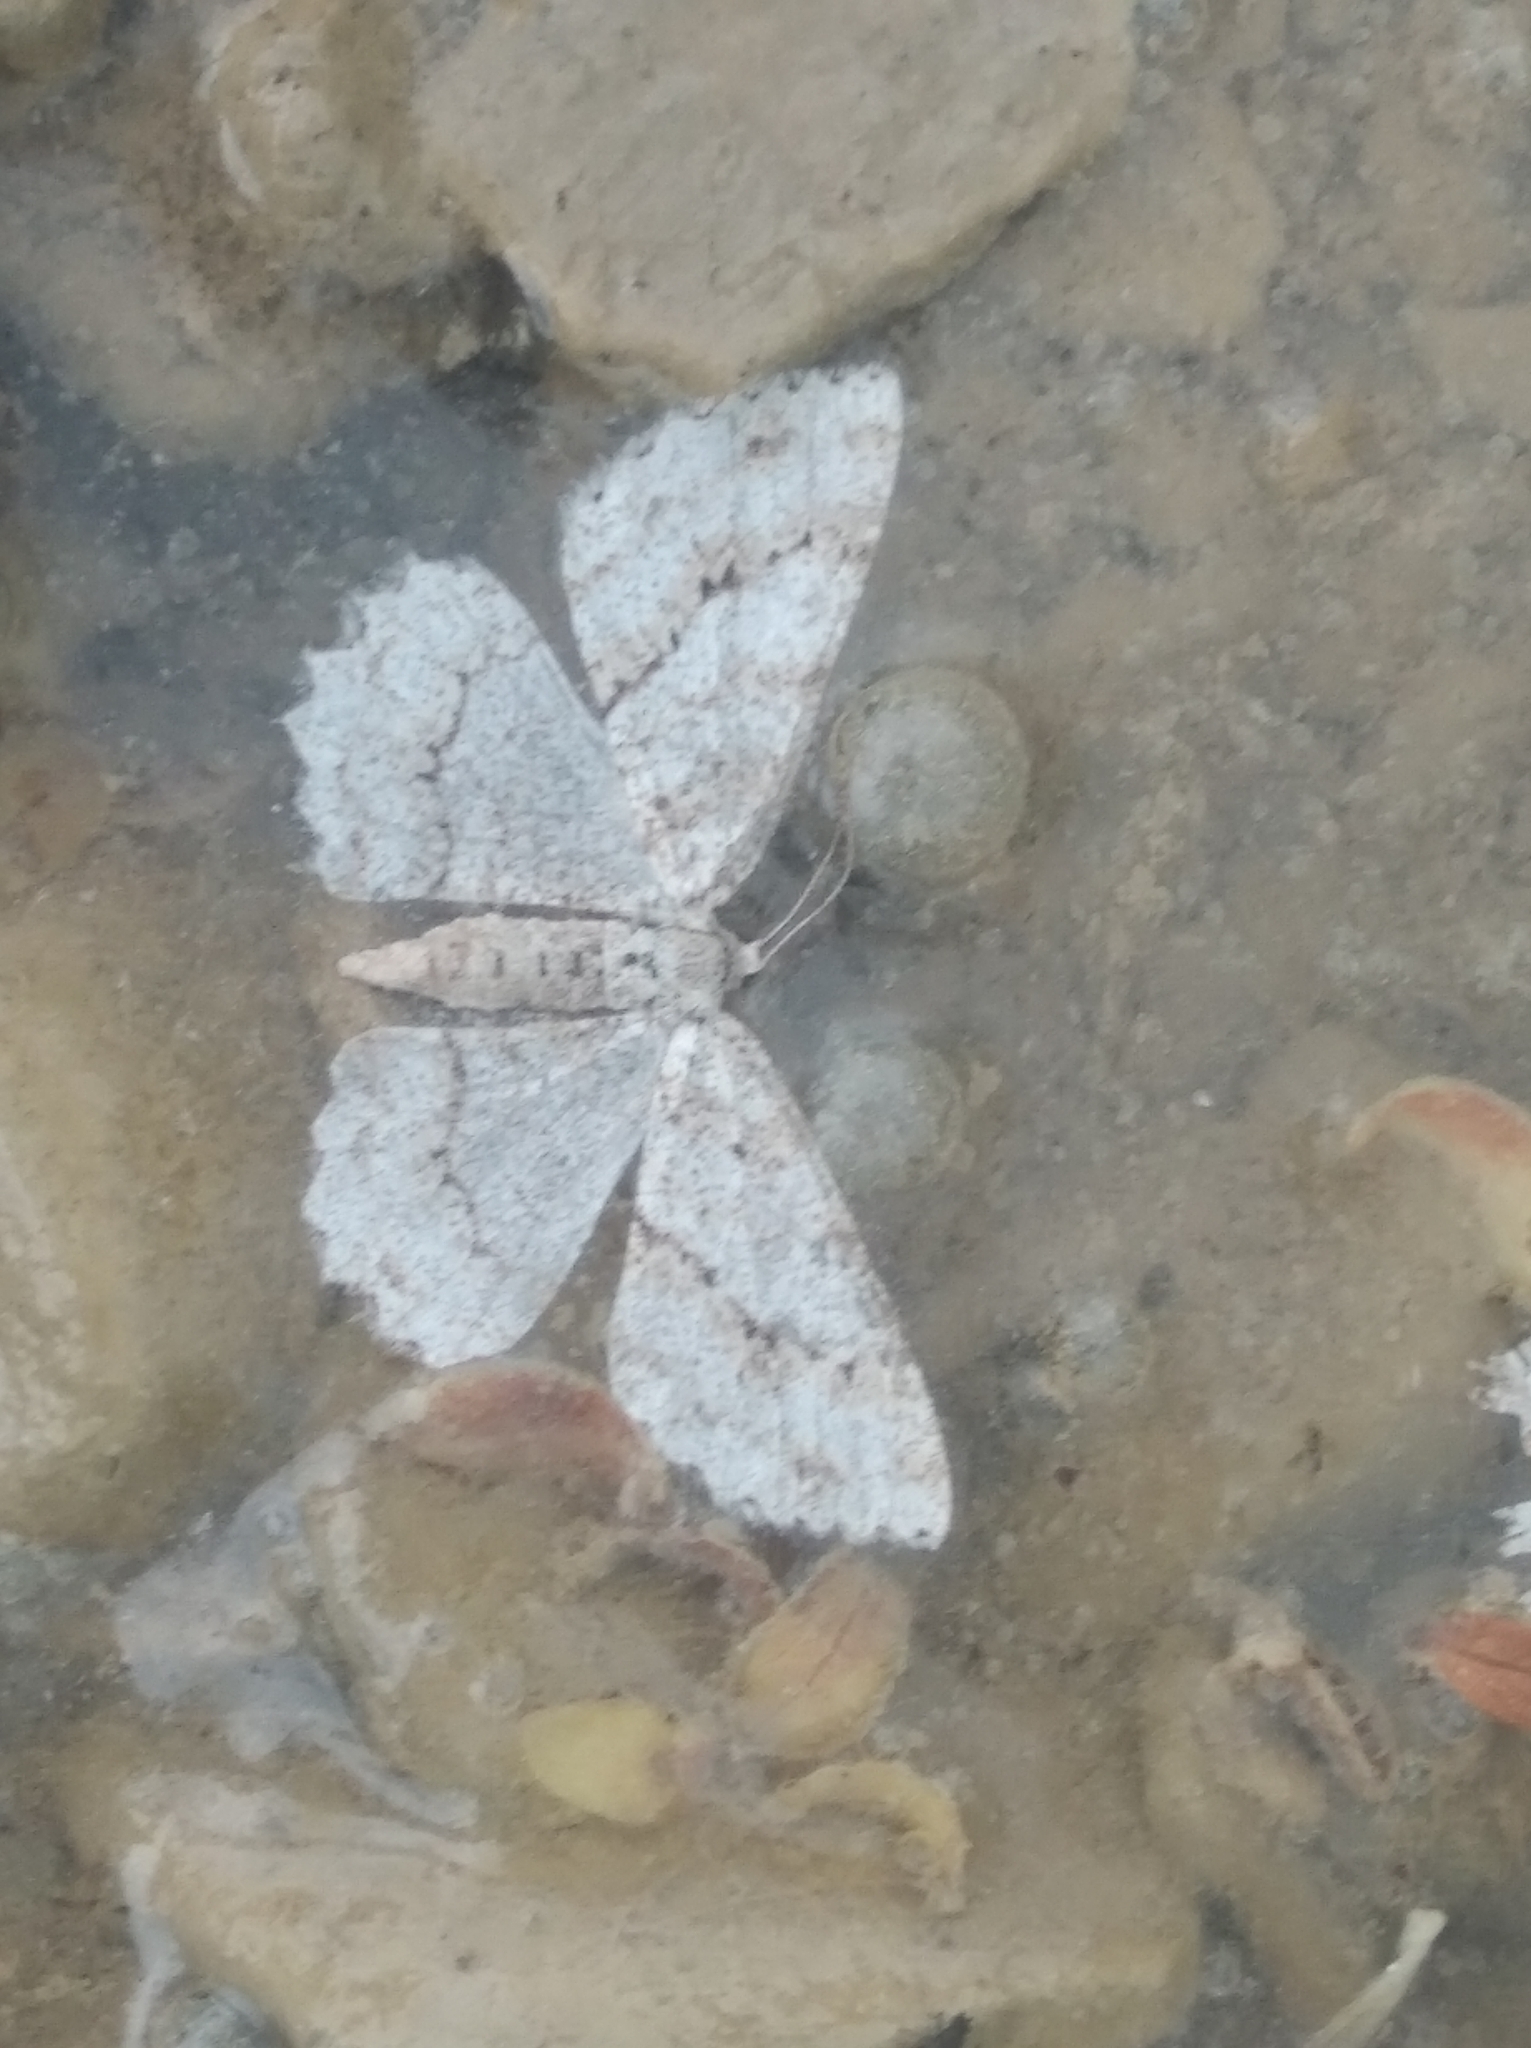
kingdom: Animalia
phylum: Arthropoda
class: Insecta
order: Lepidoptera
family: Geometridae
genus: Ectropis
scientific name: Ectropis crepuscularia
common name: Engrailed
